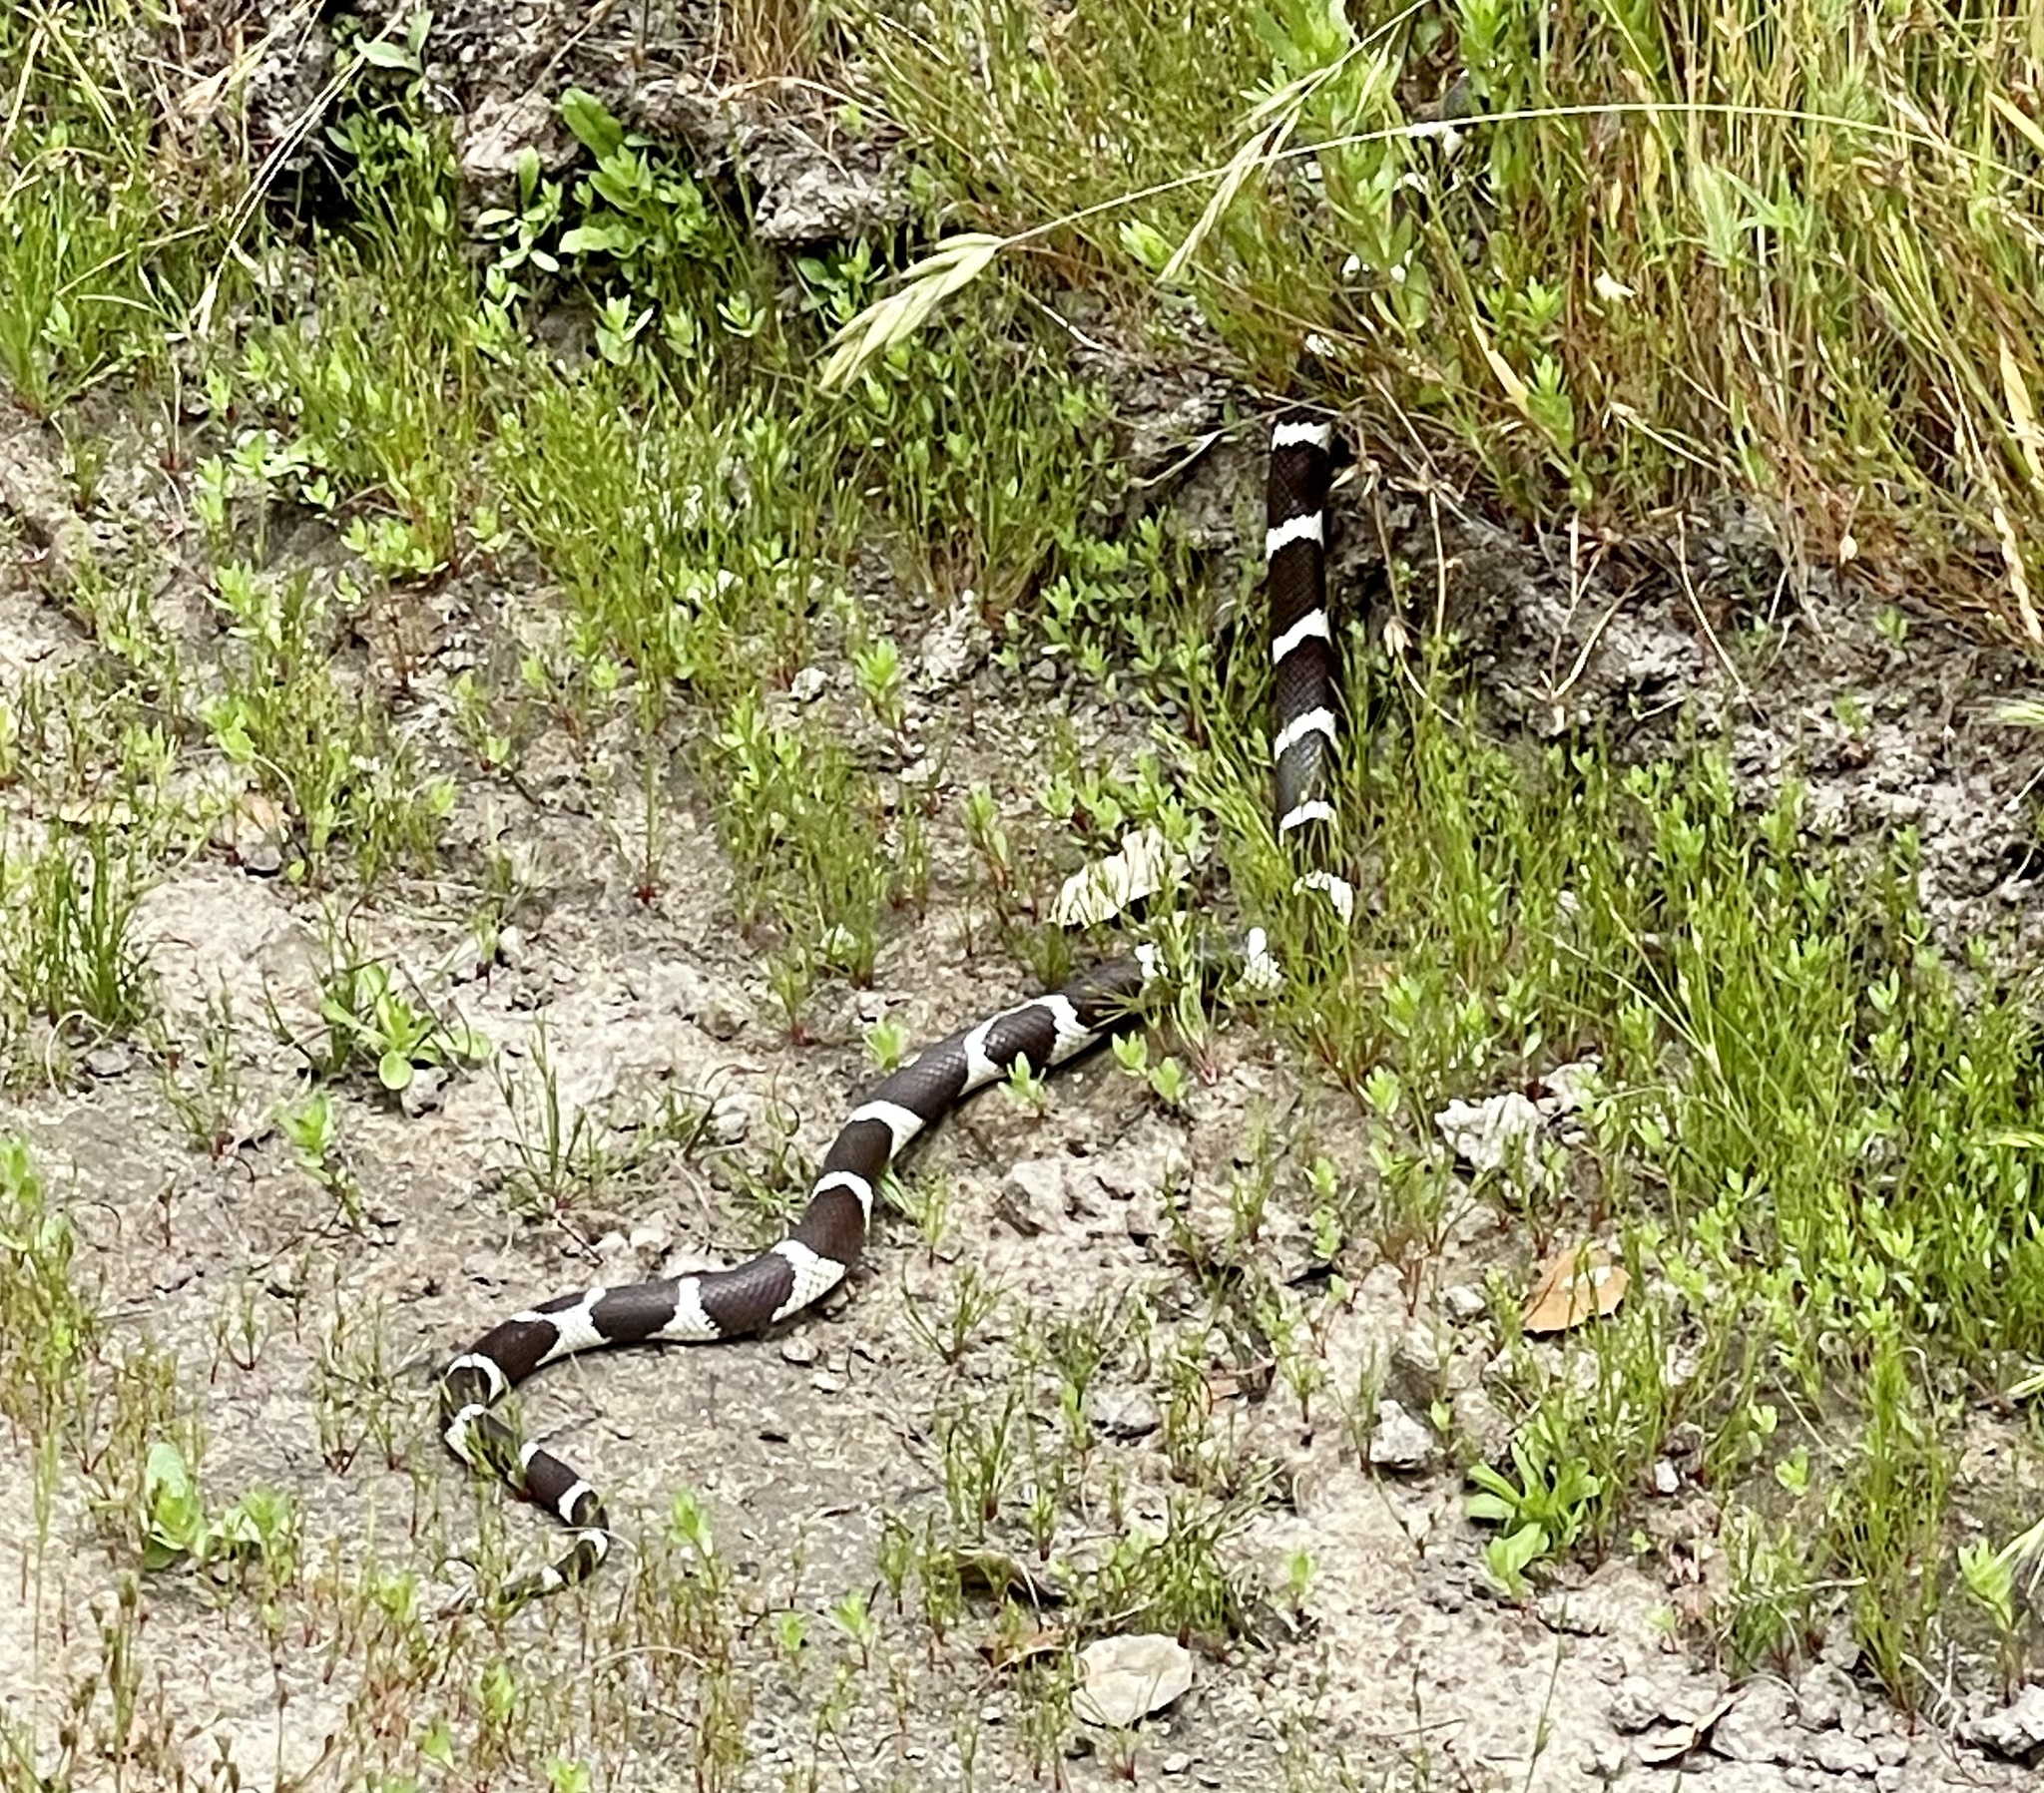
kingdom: Animalia
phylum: Chordata
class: Squamata
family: Colubridae
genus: Lampropeltis
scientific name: Lampropeltis californiae
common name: California kingsnake
